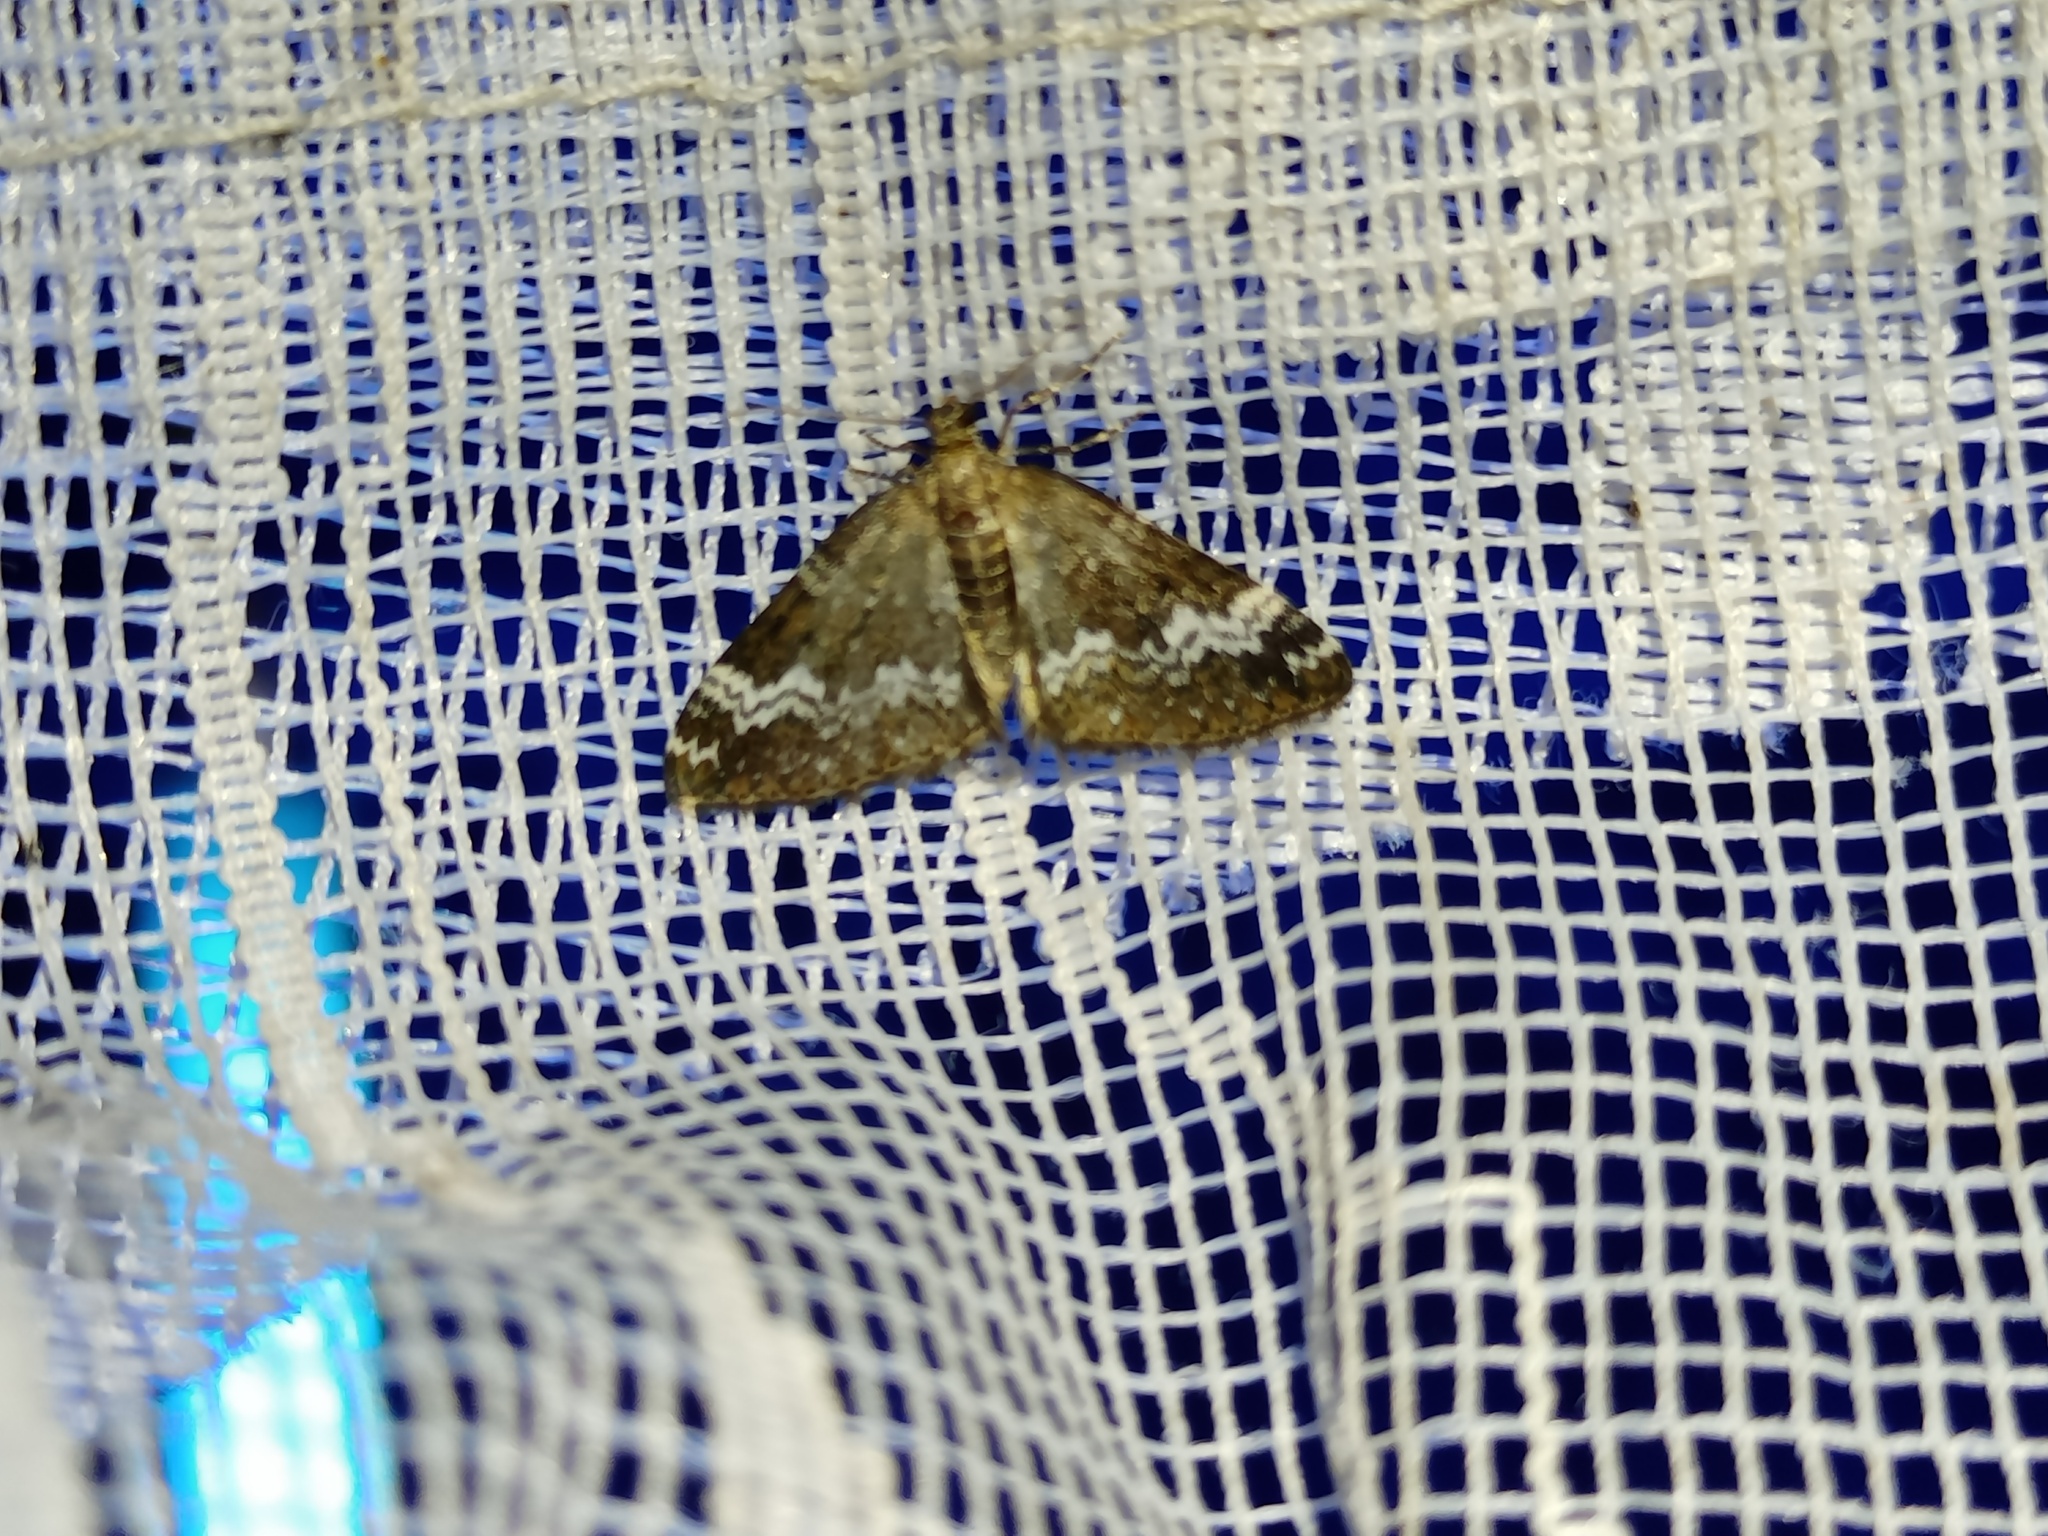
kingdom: Animalia
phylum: Arthropoda
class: Insecta
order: Lepidoptera
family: Geometridae
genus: Perizoma
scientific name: Perizoma alchemillata
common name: Small rivulet
